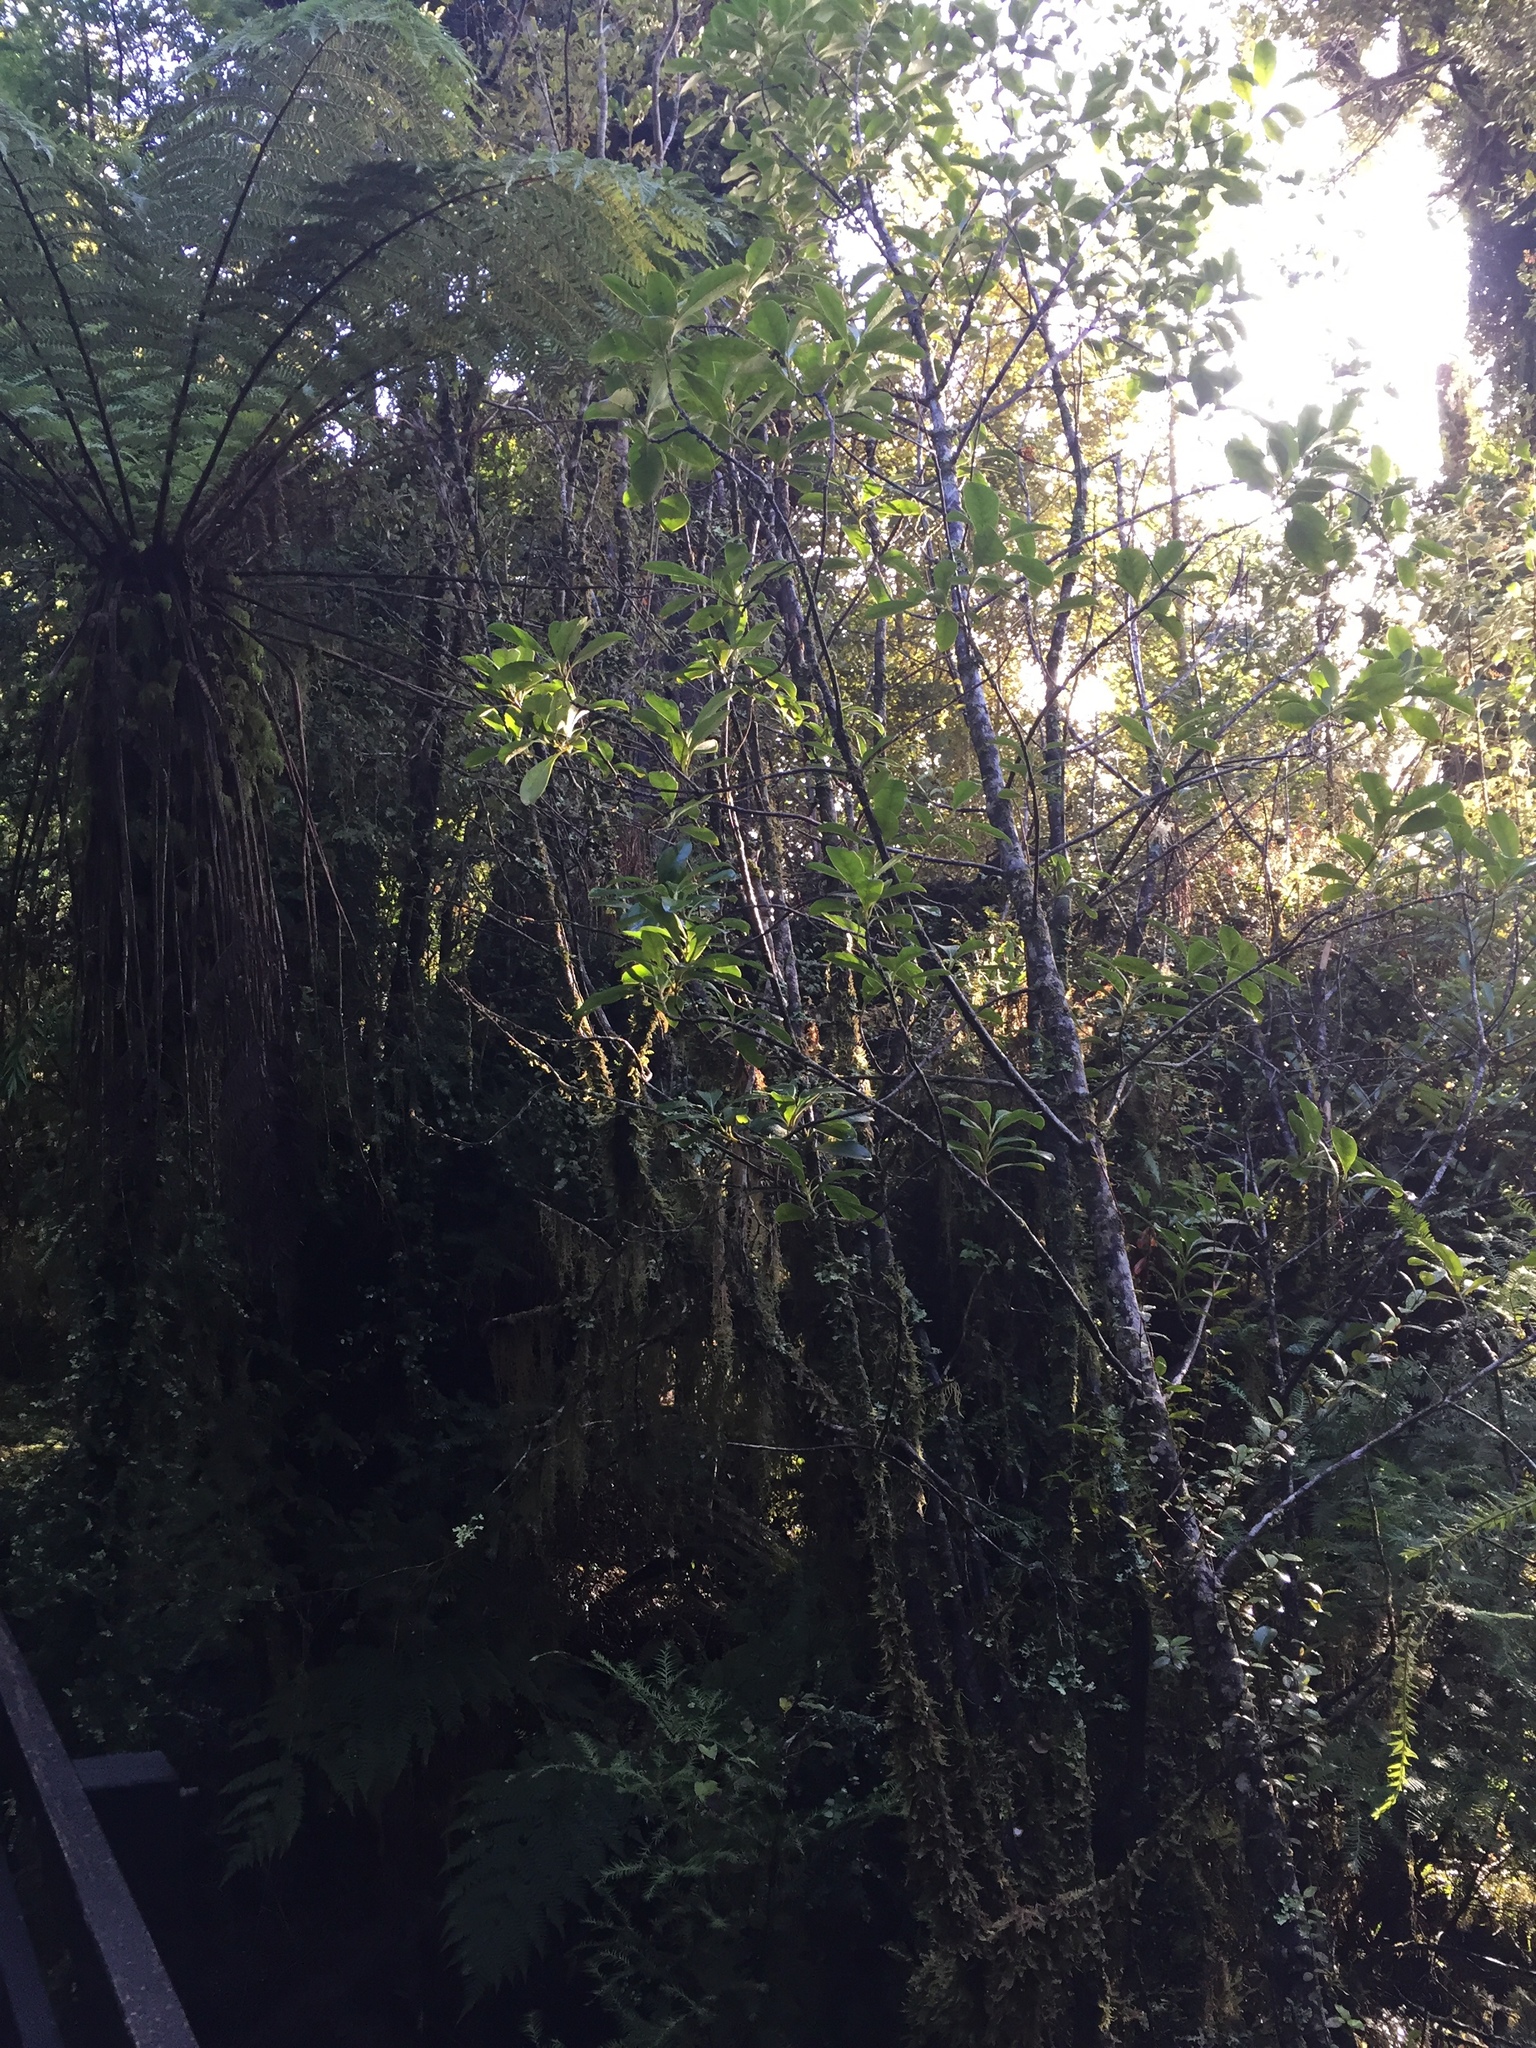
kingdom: Plantae
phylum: Tracheophyta
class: Magnoliopsida
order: Gentianales
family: Rubiaceae
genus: Coprosma
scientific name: Coprosma lucida
